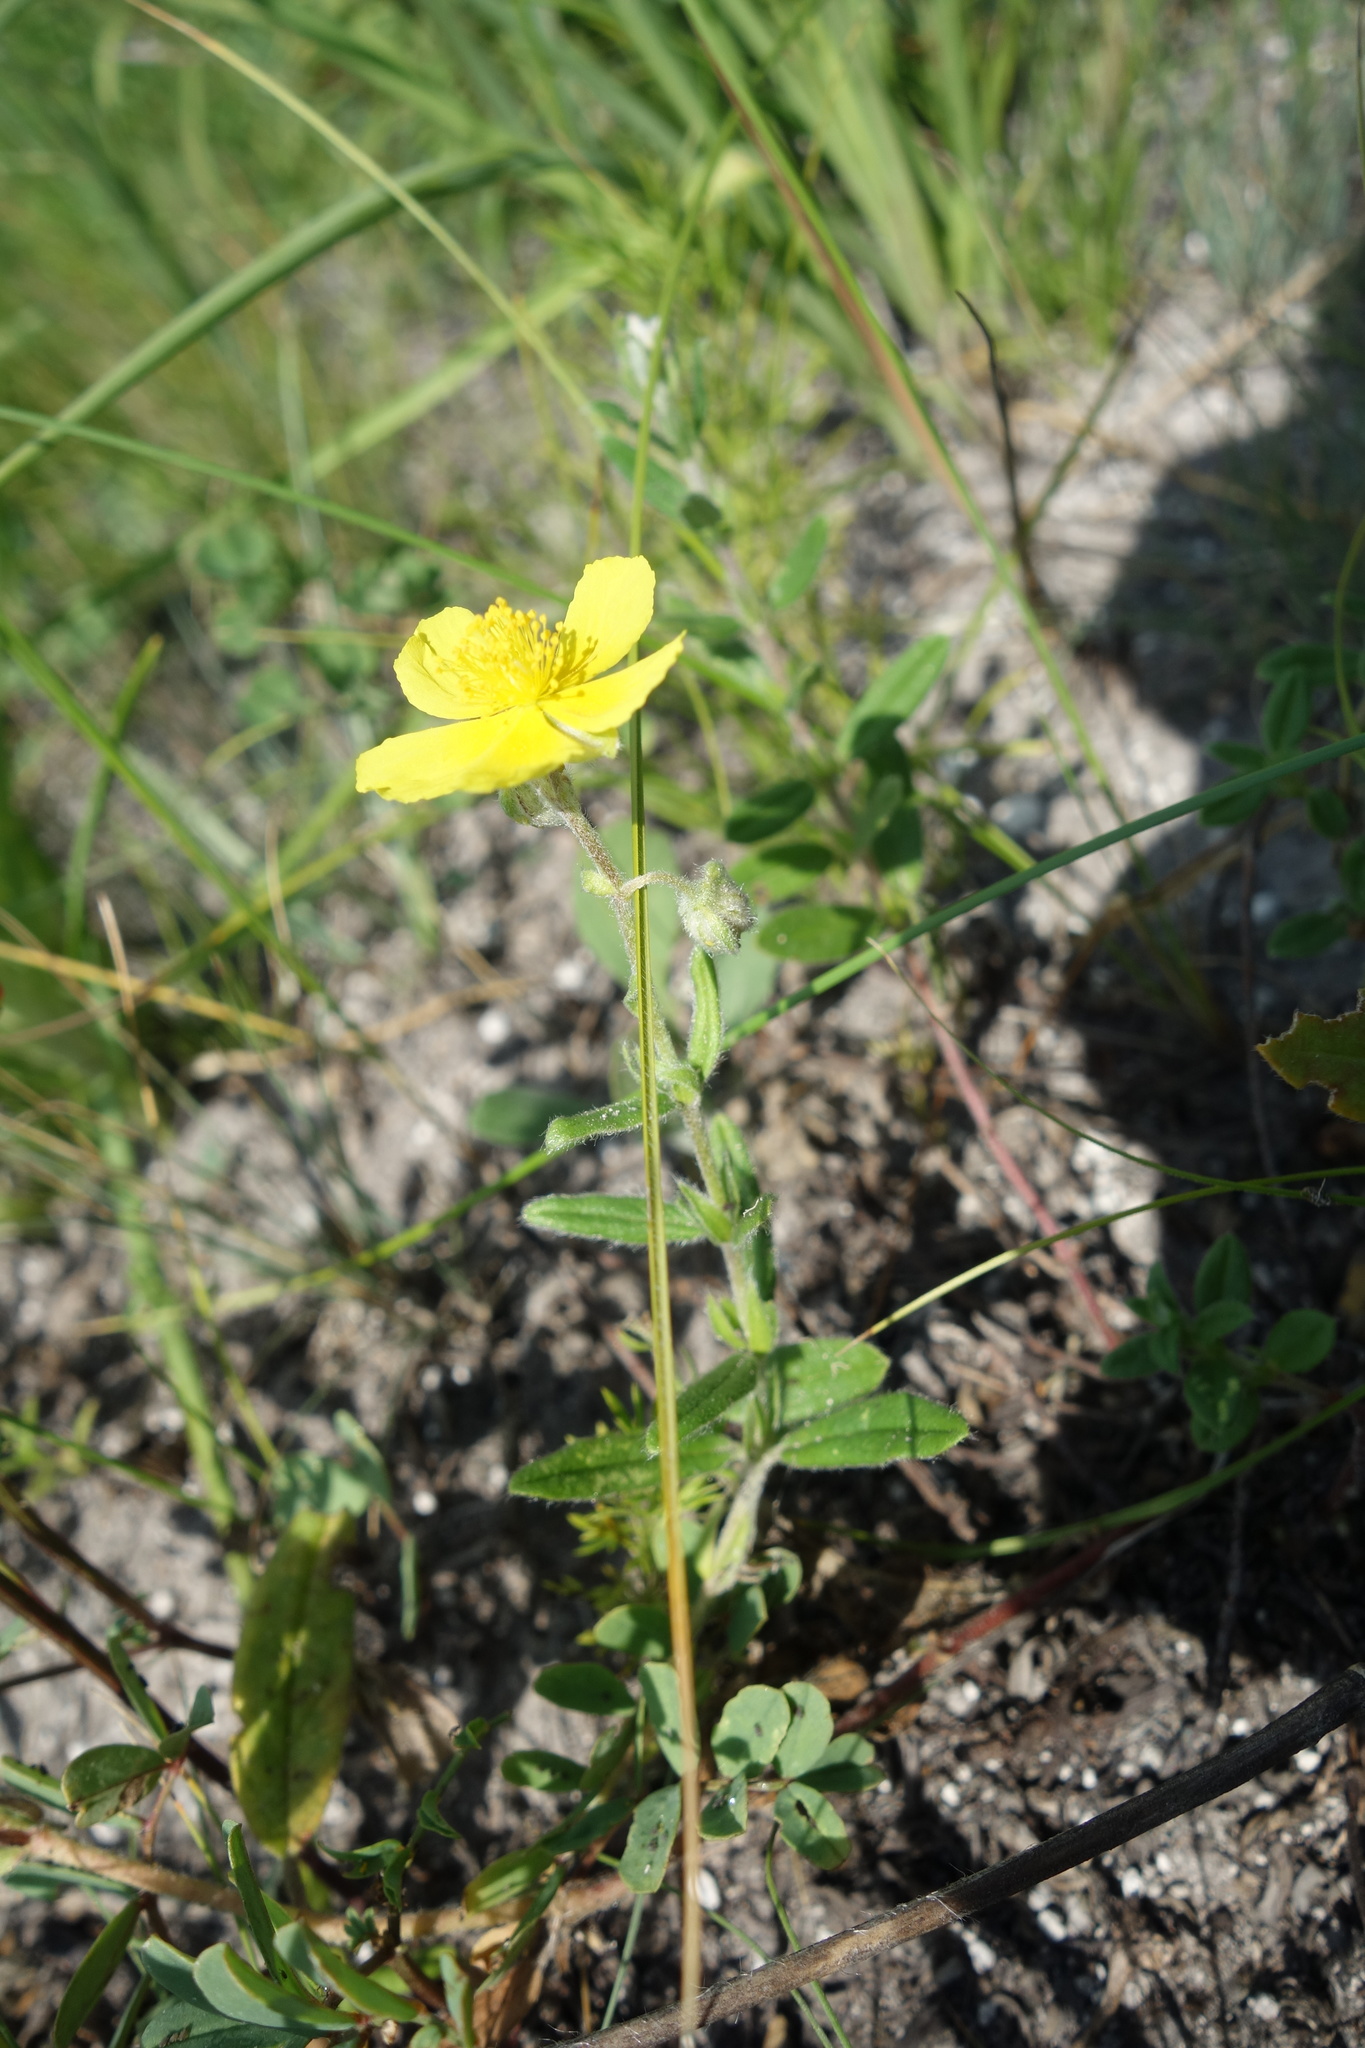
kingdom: Plantae
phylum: Tracheophyta
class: Magnoliopsida
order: Malvales
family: Cistaceae
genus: Helianthemum
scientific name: Helianthemum nummularium
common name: Common rock-rose
